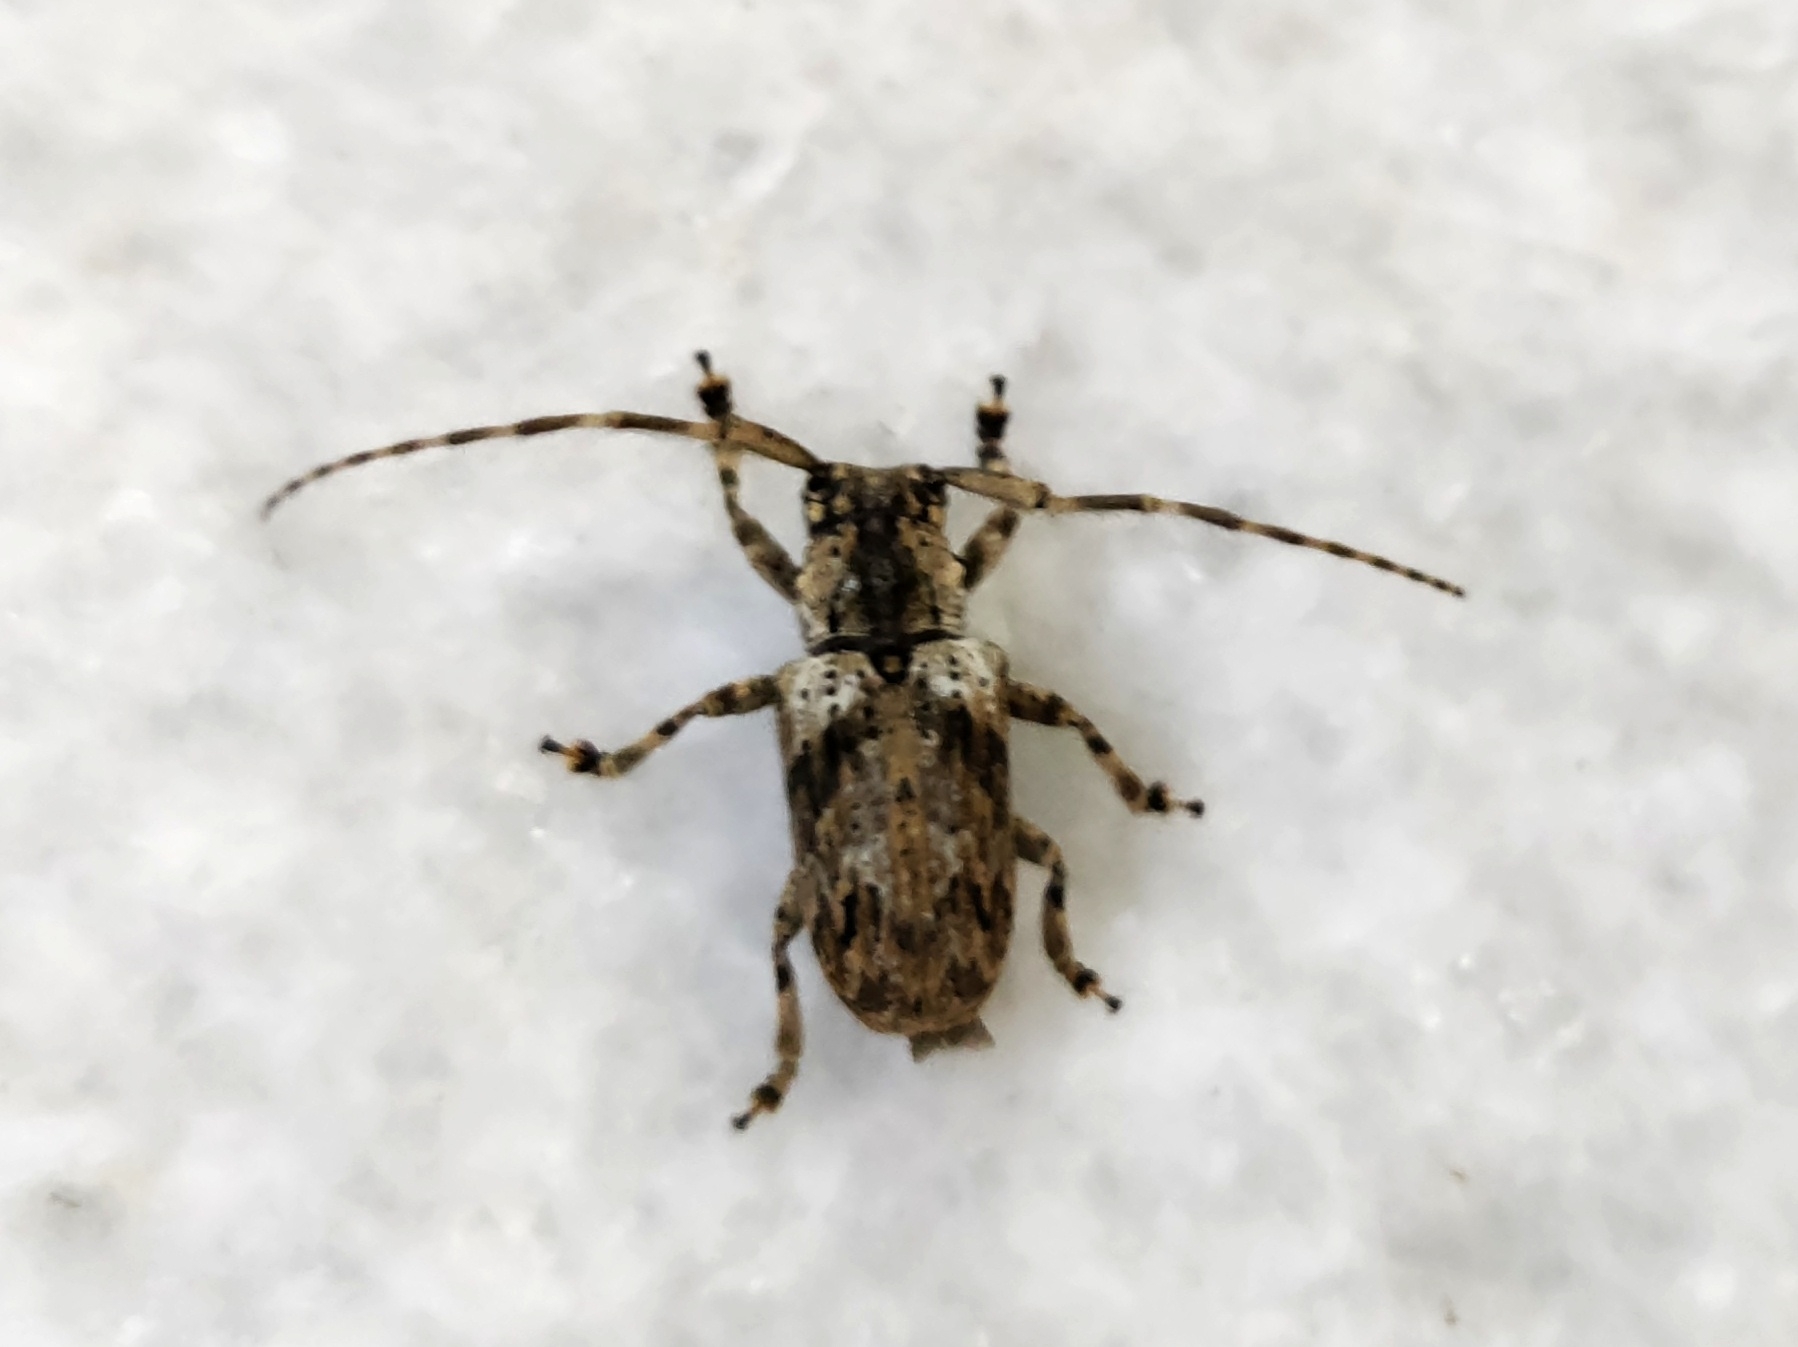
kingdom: Animalia
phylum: Arthropoda
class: Insecta
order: Coleoptera
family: Cerambycidae
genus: Coptops
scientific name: Coptops aedificator
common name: Long-horned beetle
